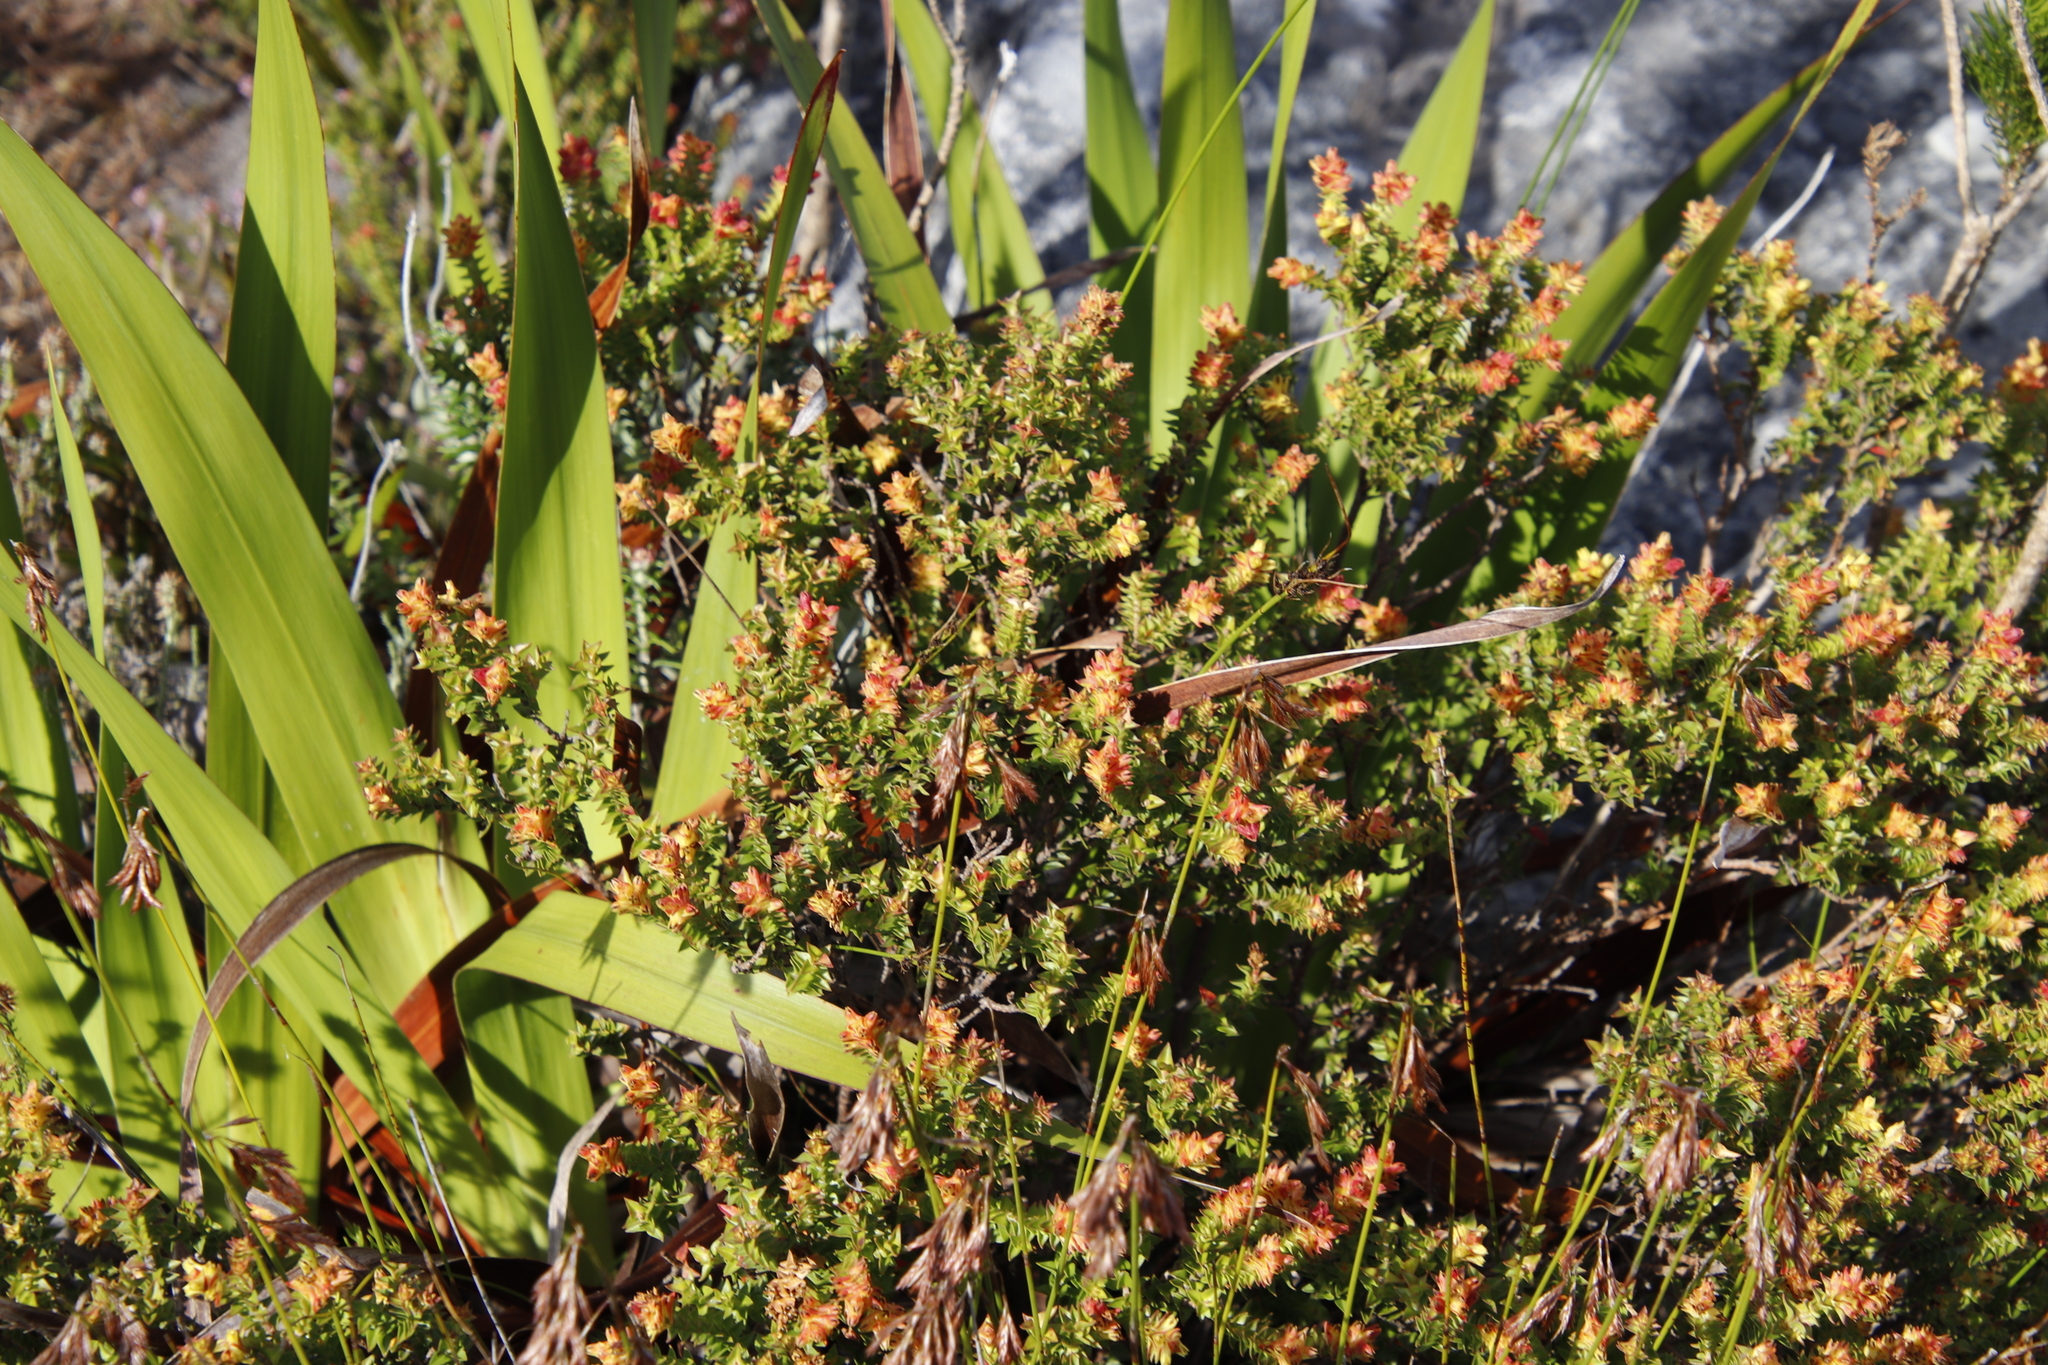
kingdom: Plantae
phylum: Tracheophyta
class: Magnoliopsida
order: Myrtales
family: Penaeaceae
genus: Penaea
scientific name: Penaea mucronata
